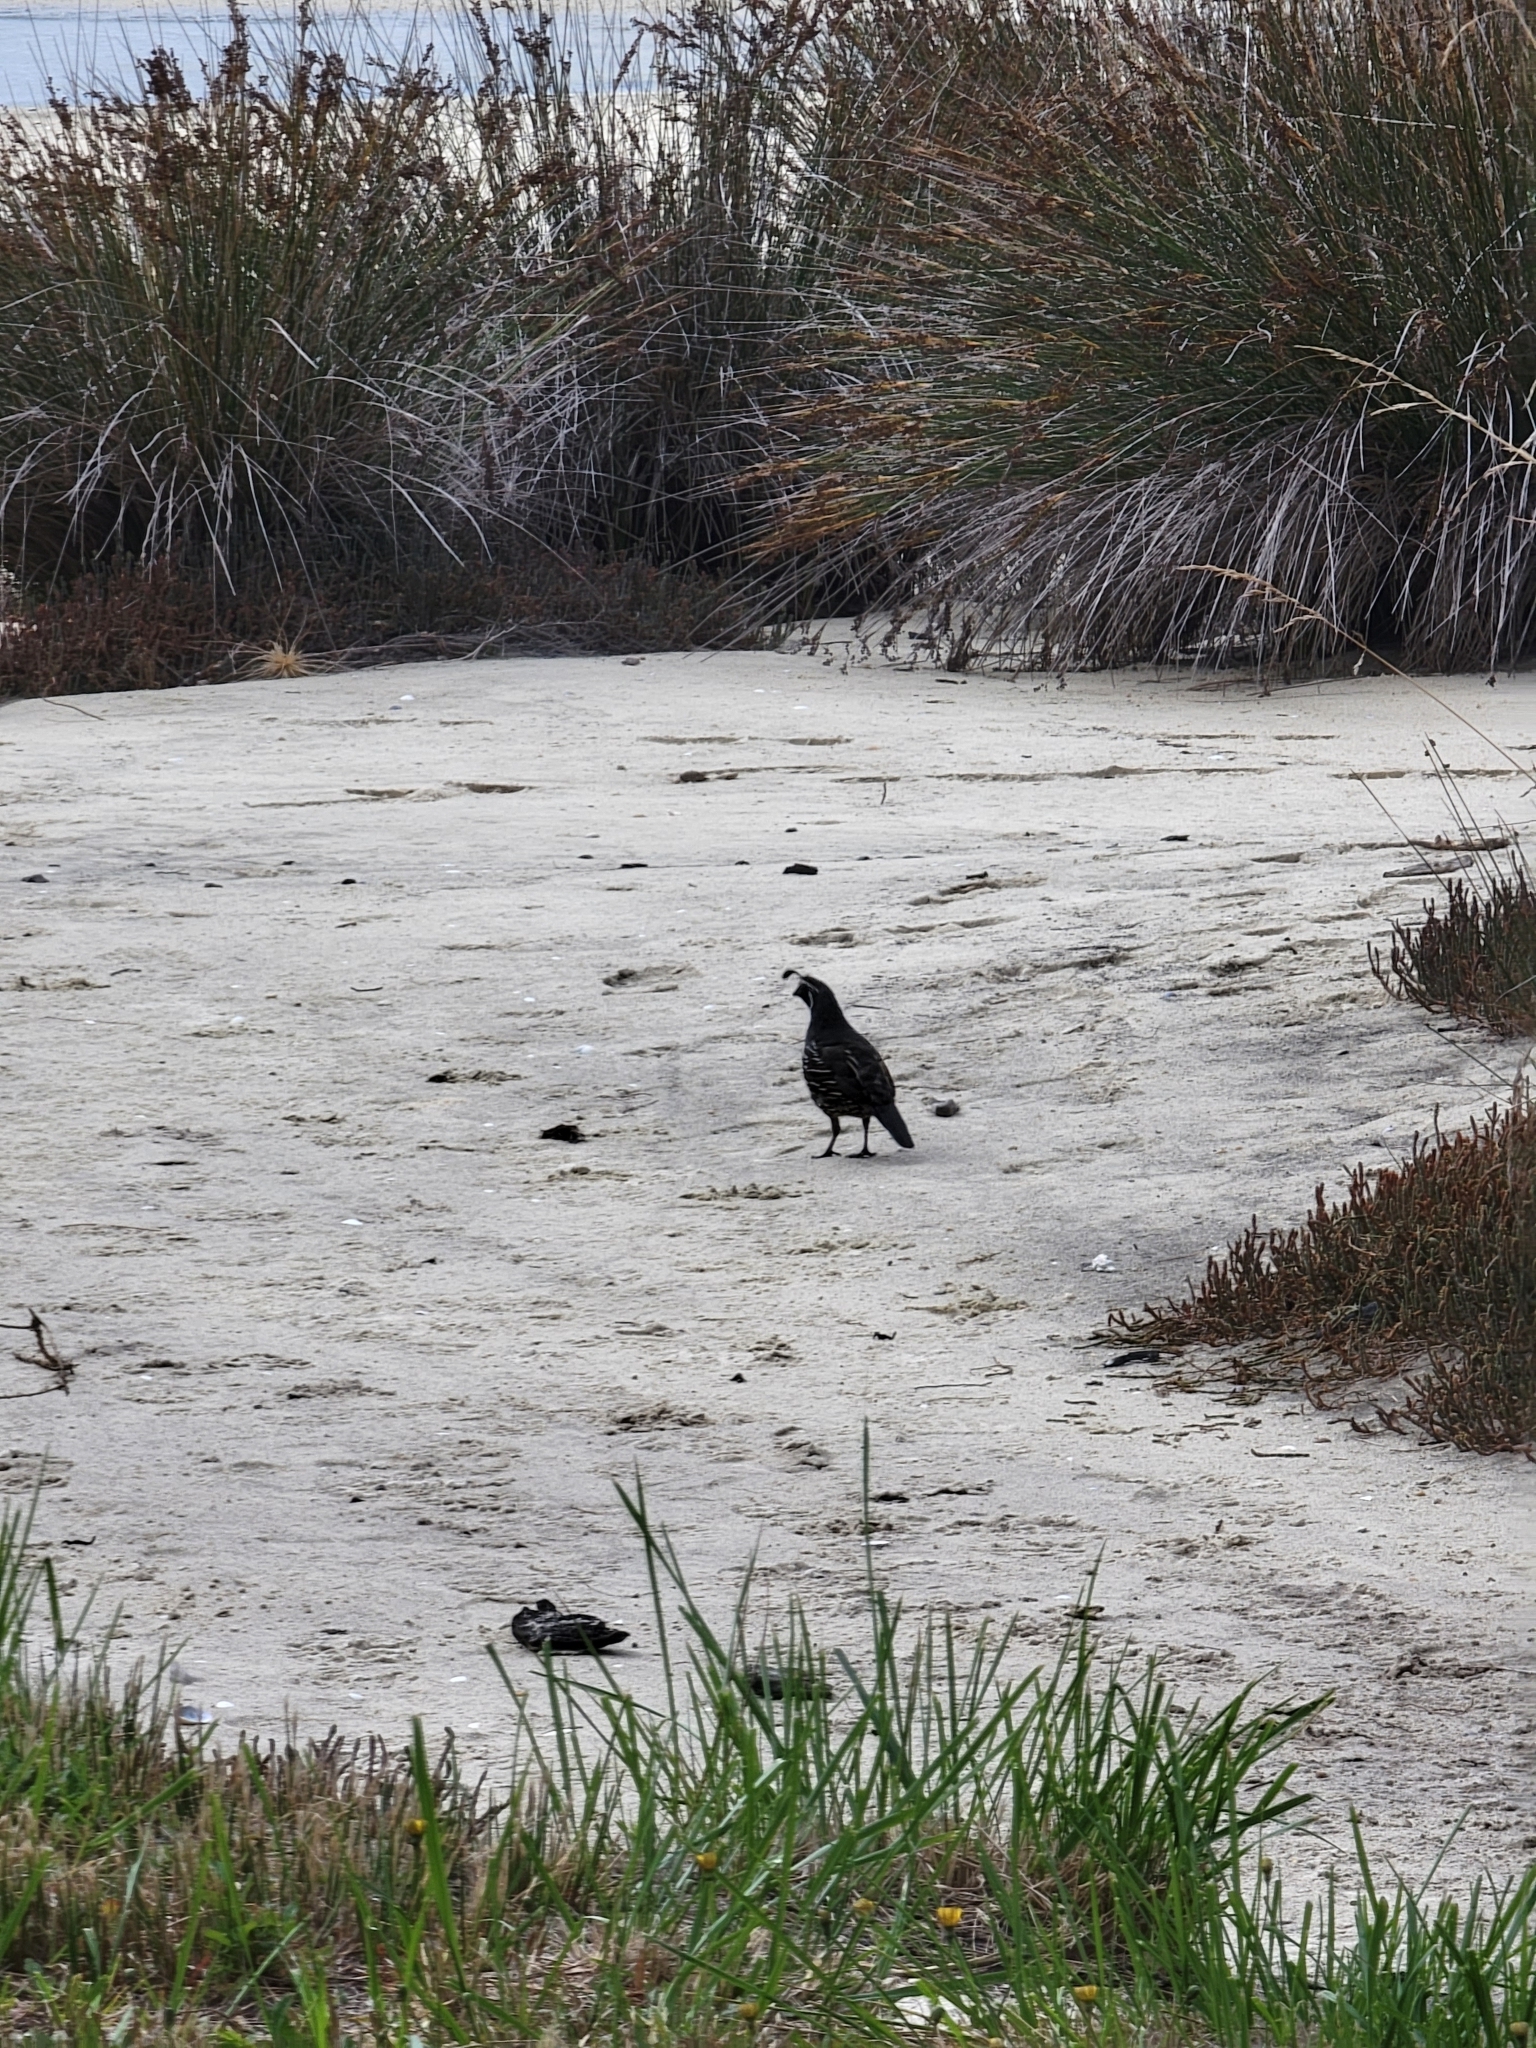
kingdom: Animalia
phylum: Chordata
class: Aves
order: Galliformes
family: Odontophoridae
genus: Callipepla
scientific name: Callipepla californica
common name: California quail
